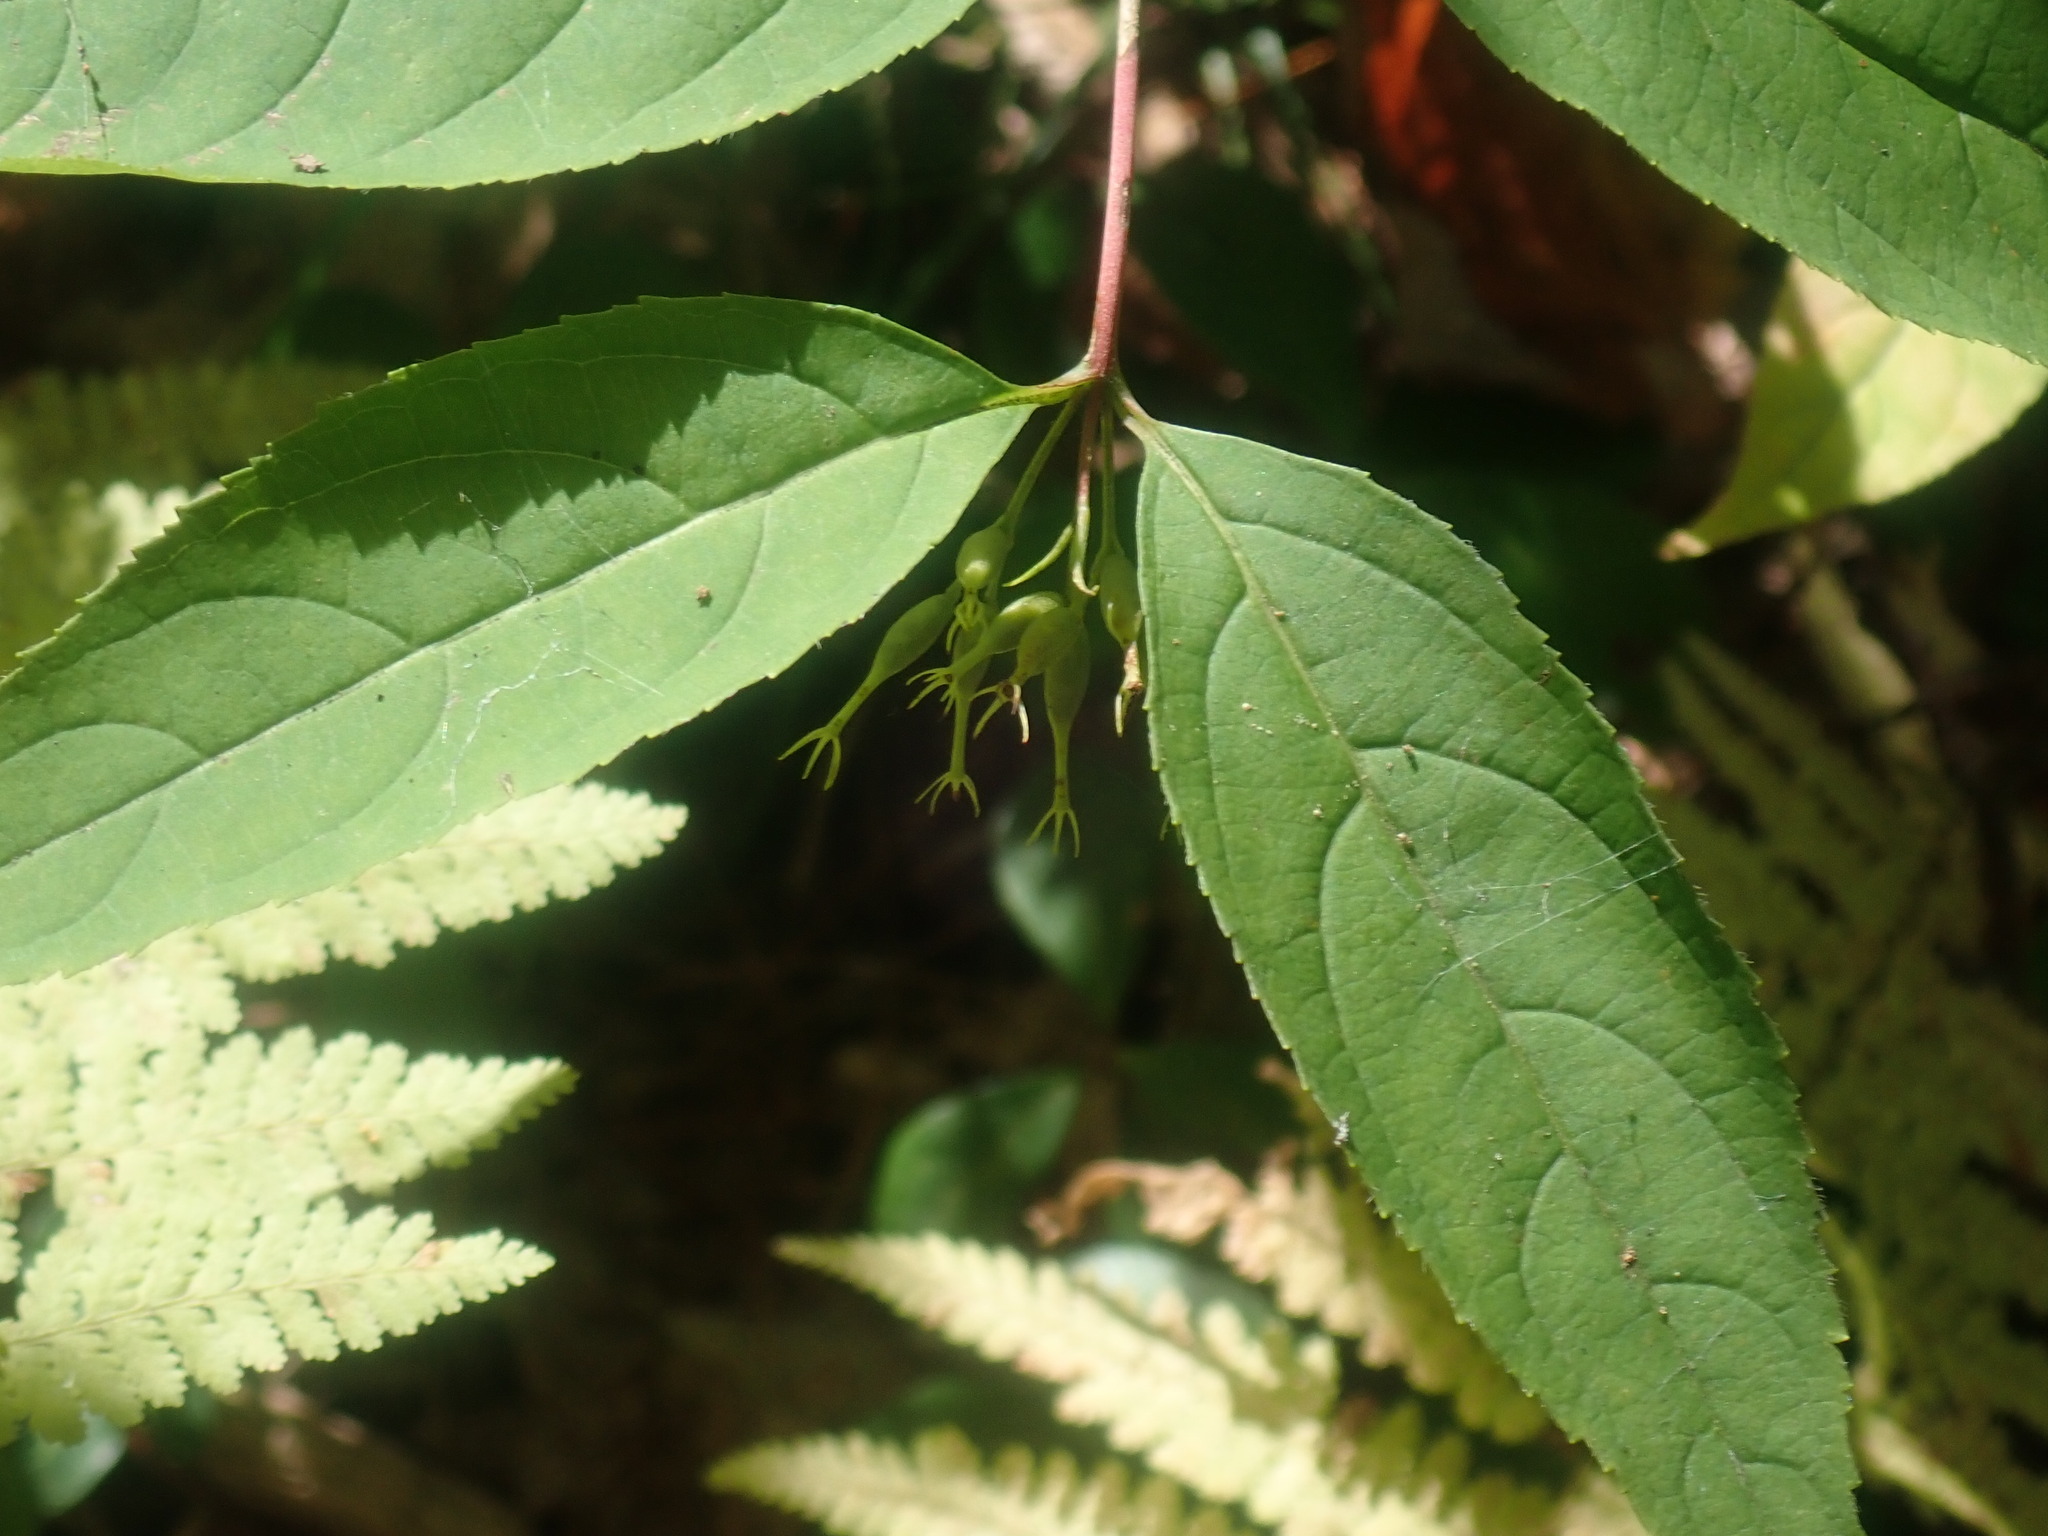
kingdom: Plantae
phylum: Tracheophyta
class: Magnoliopsida
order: Dipsacales
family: Caprifoliaceae
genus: Diervilla
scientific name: Diervilla lonicera
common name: Bush-honeysuckle
